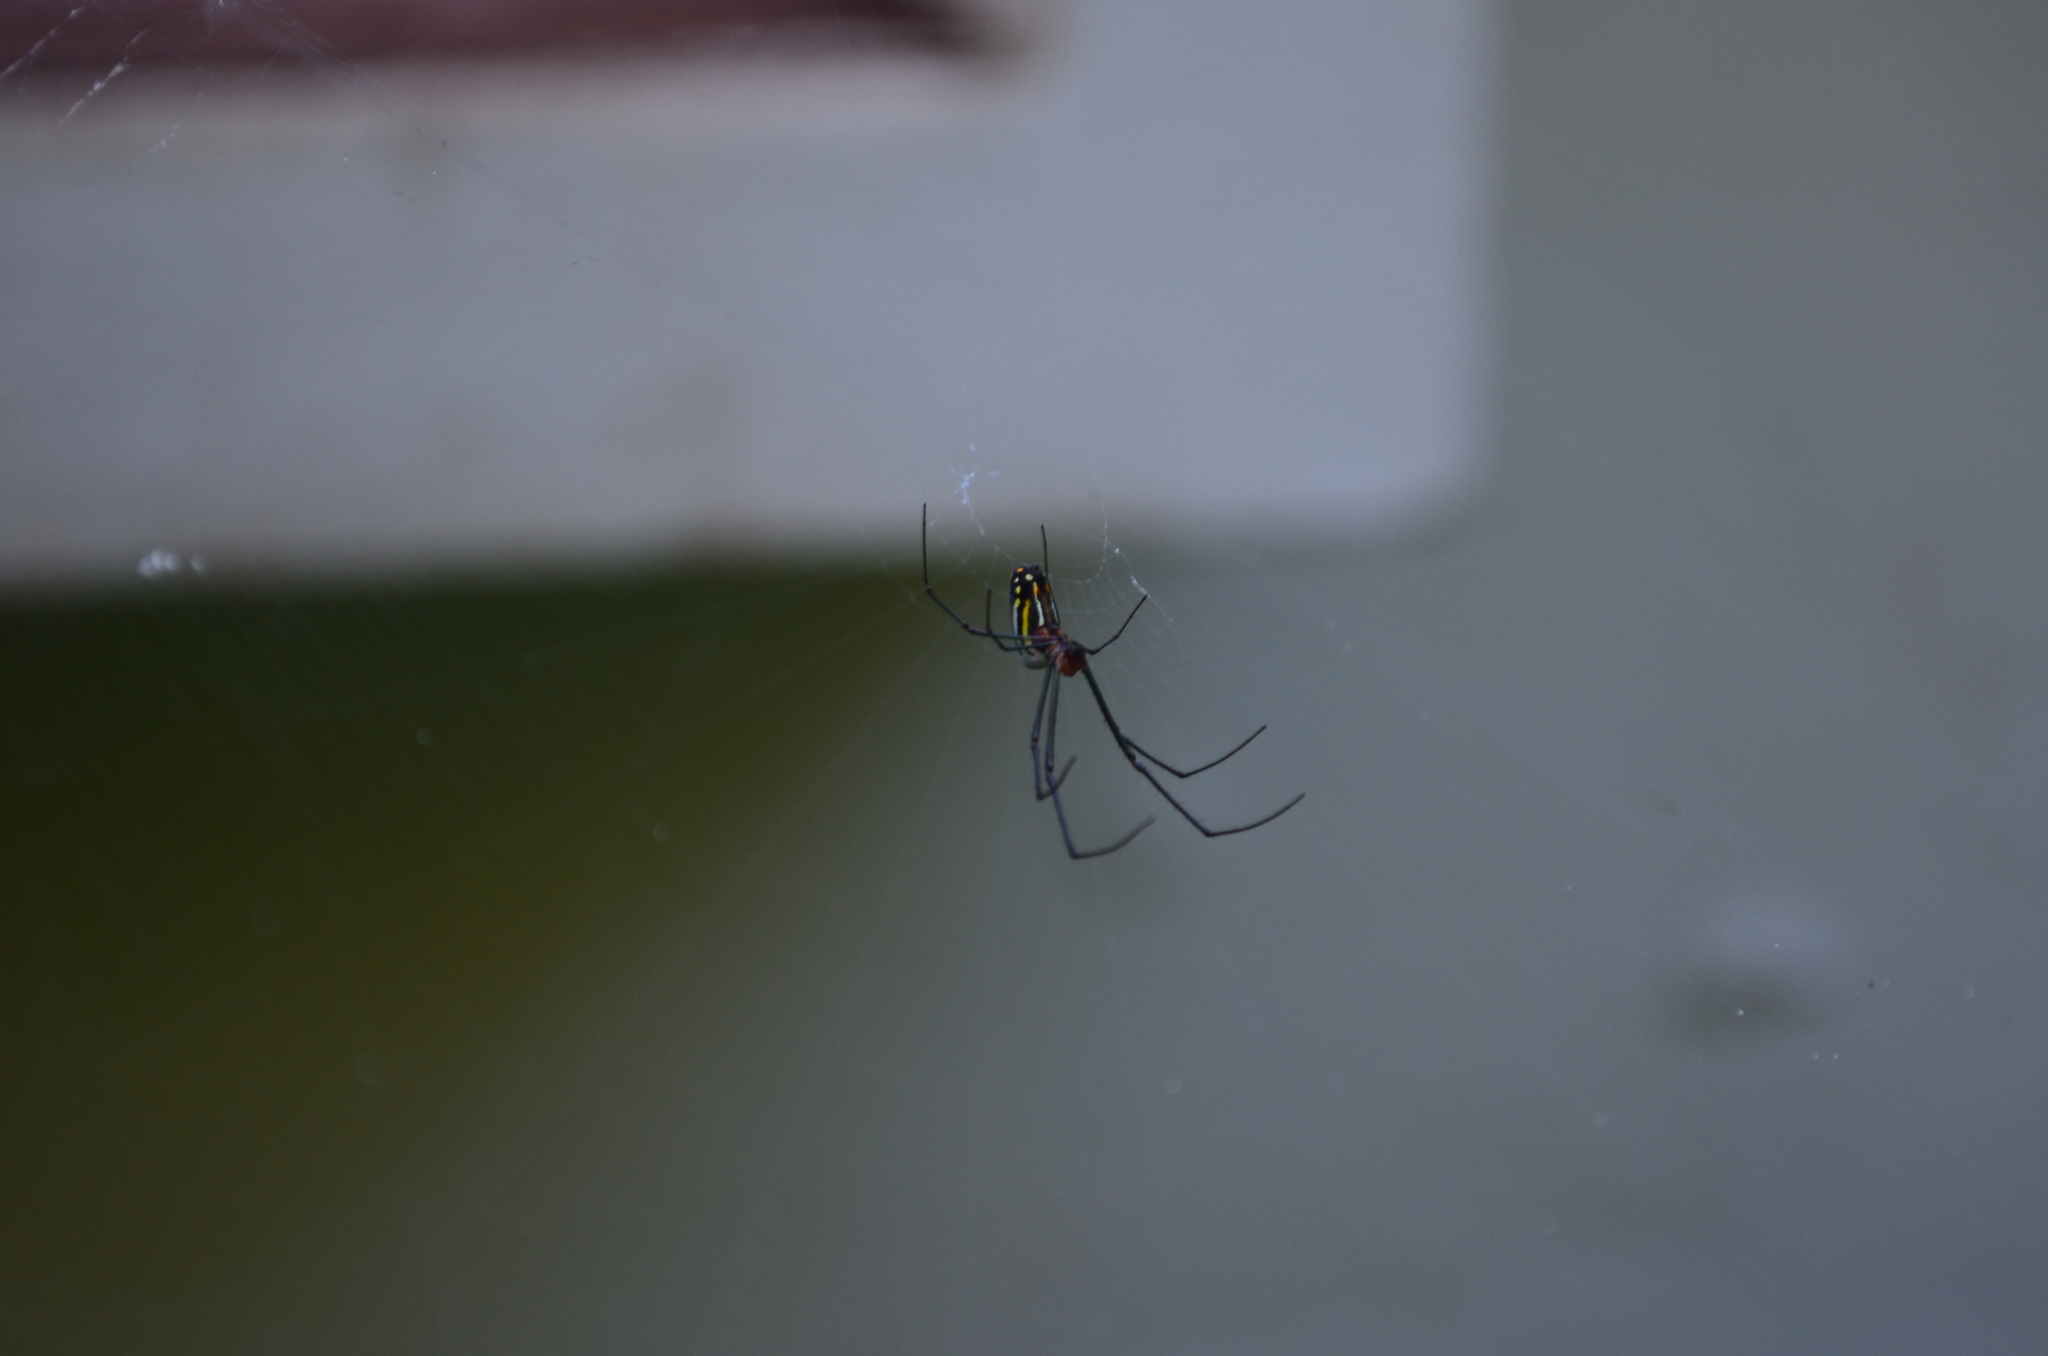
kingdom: Animalia
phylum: Arthropoda
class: Arachnida
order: Araneae
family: Tetragnathidae
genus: Leucauge
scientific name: Leucauge argyra
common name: Longjawed orb weavers
